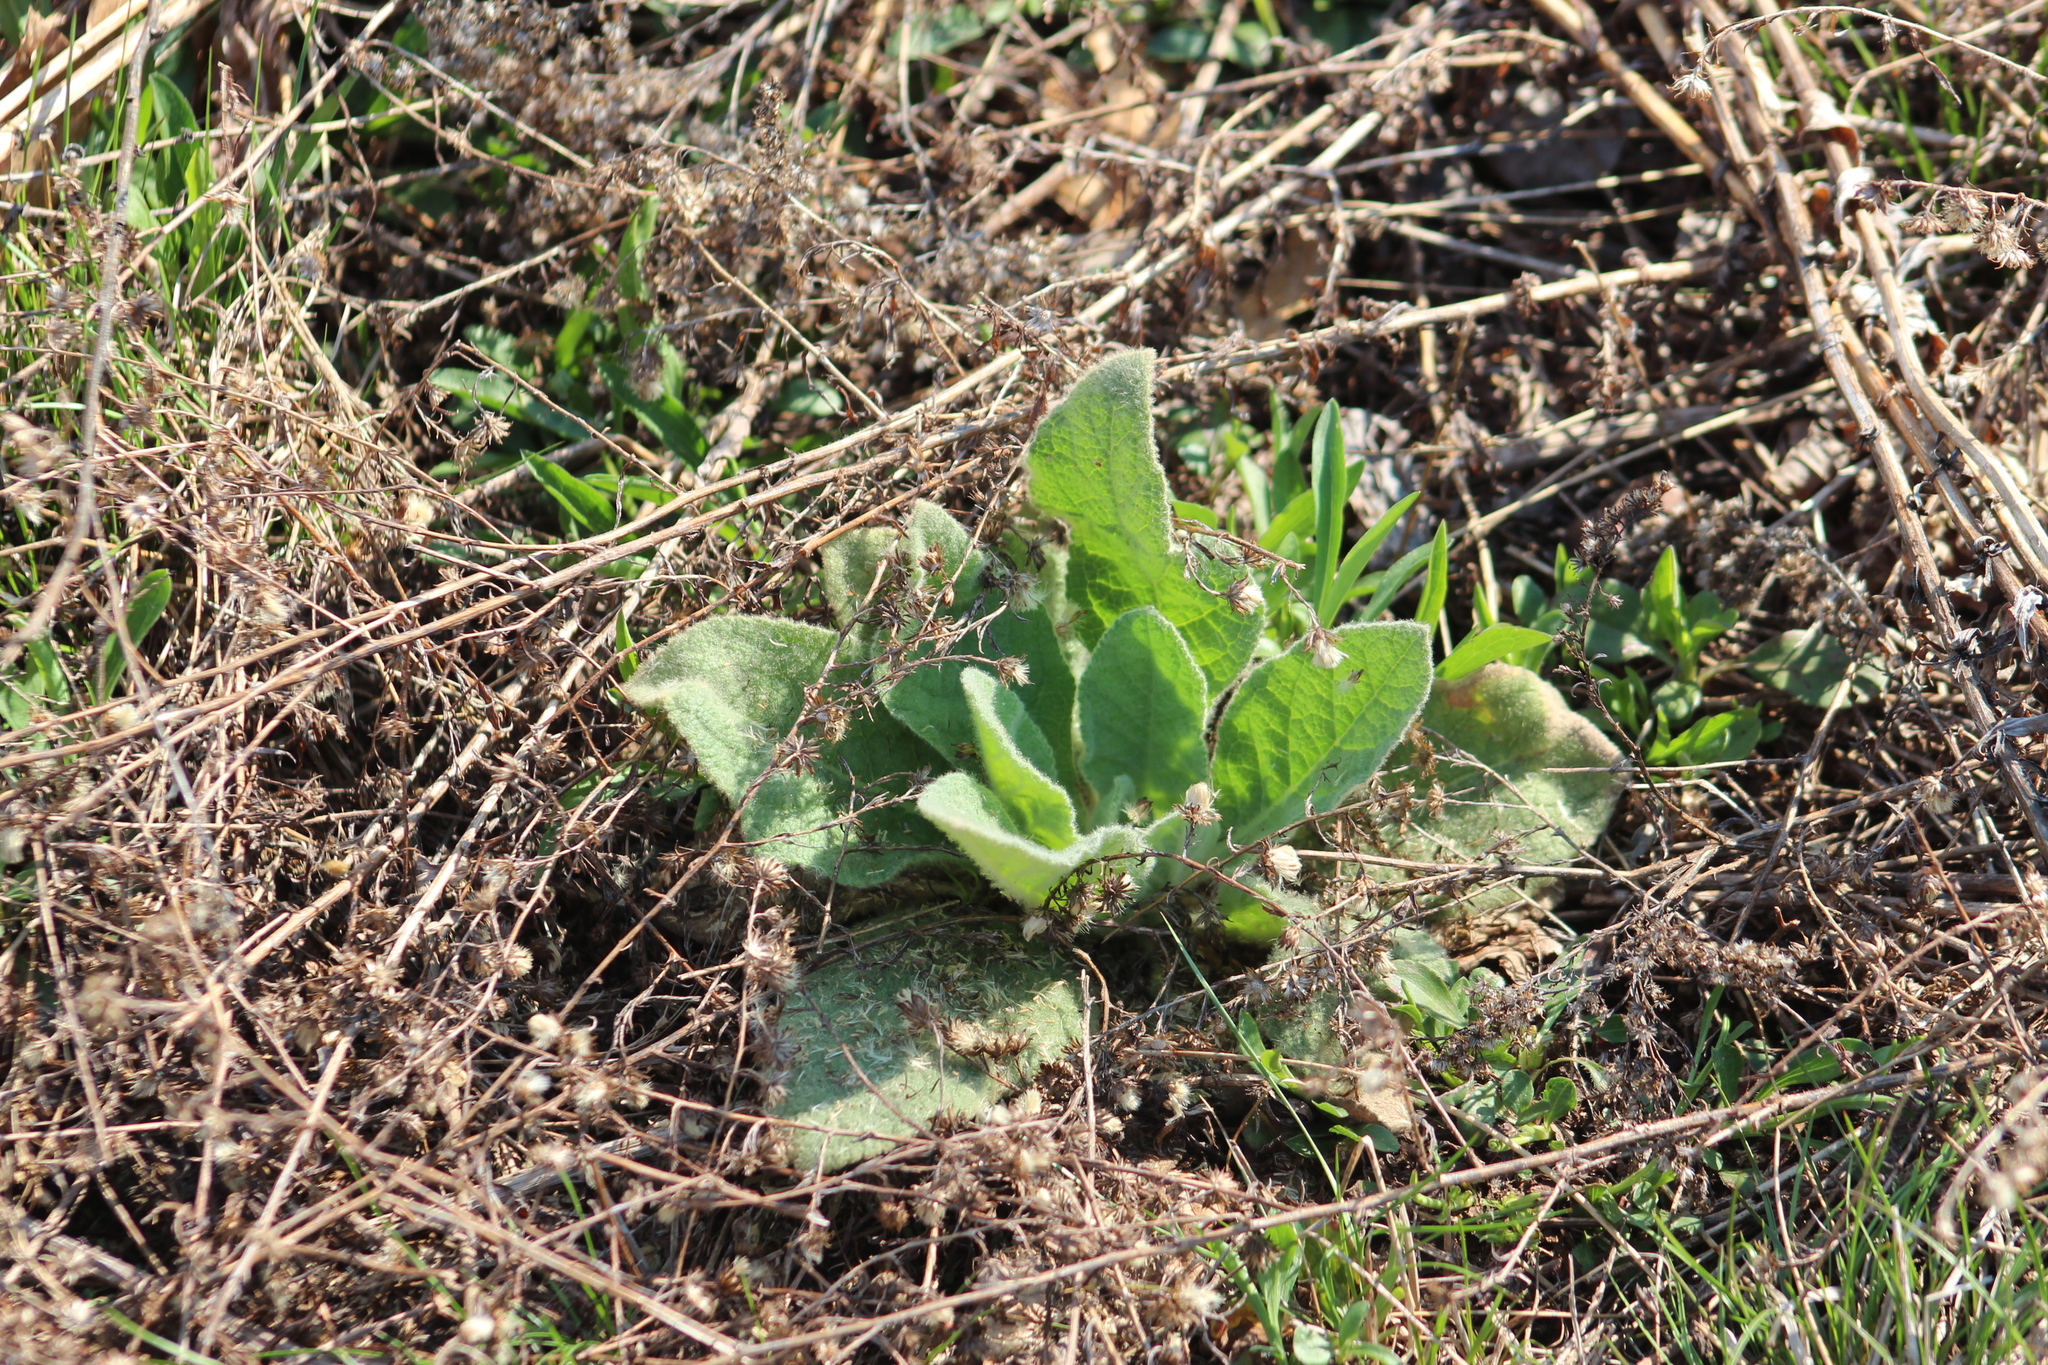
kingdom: Plantae
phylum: Tracheophyta
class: Magnoliopsida
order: Lamiales
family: Scrophulariaceae
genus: Verbascum
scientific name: Verbascum thapsus
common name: Common mullein
